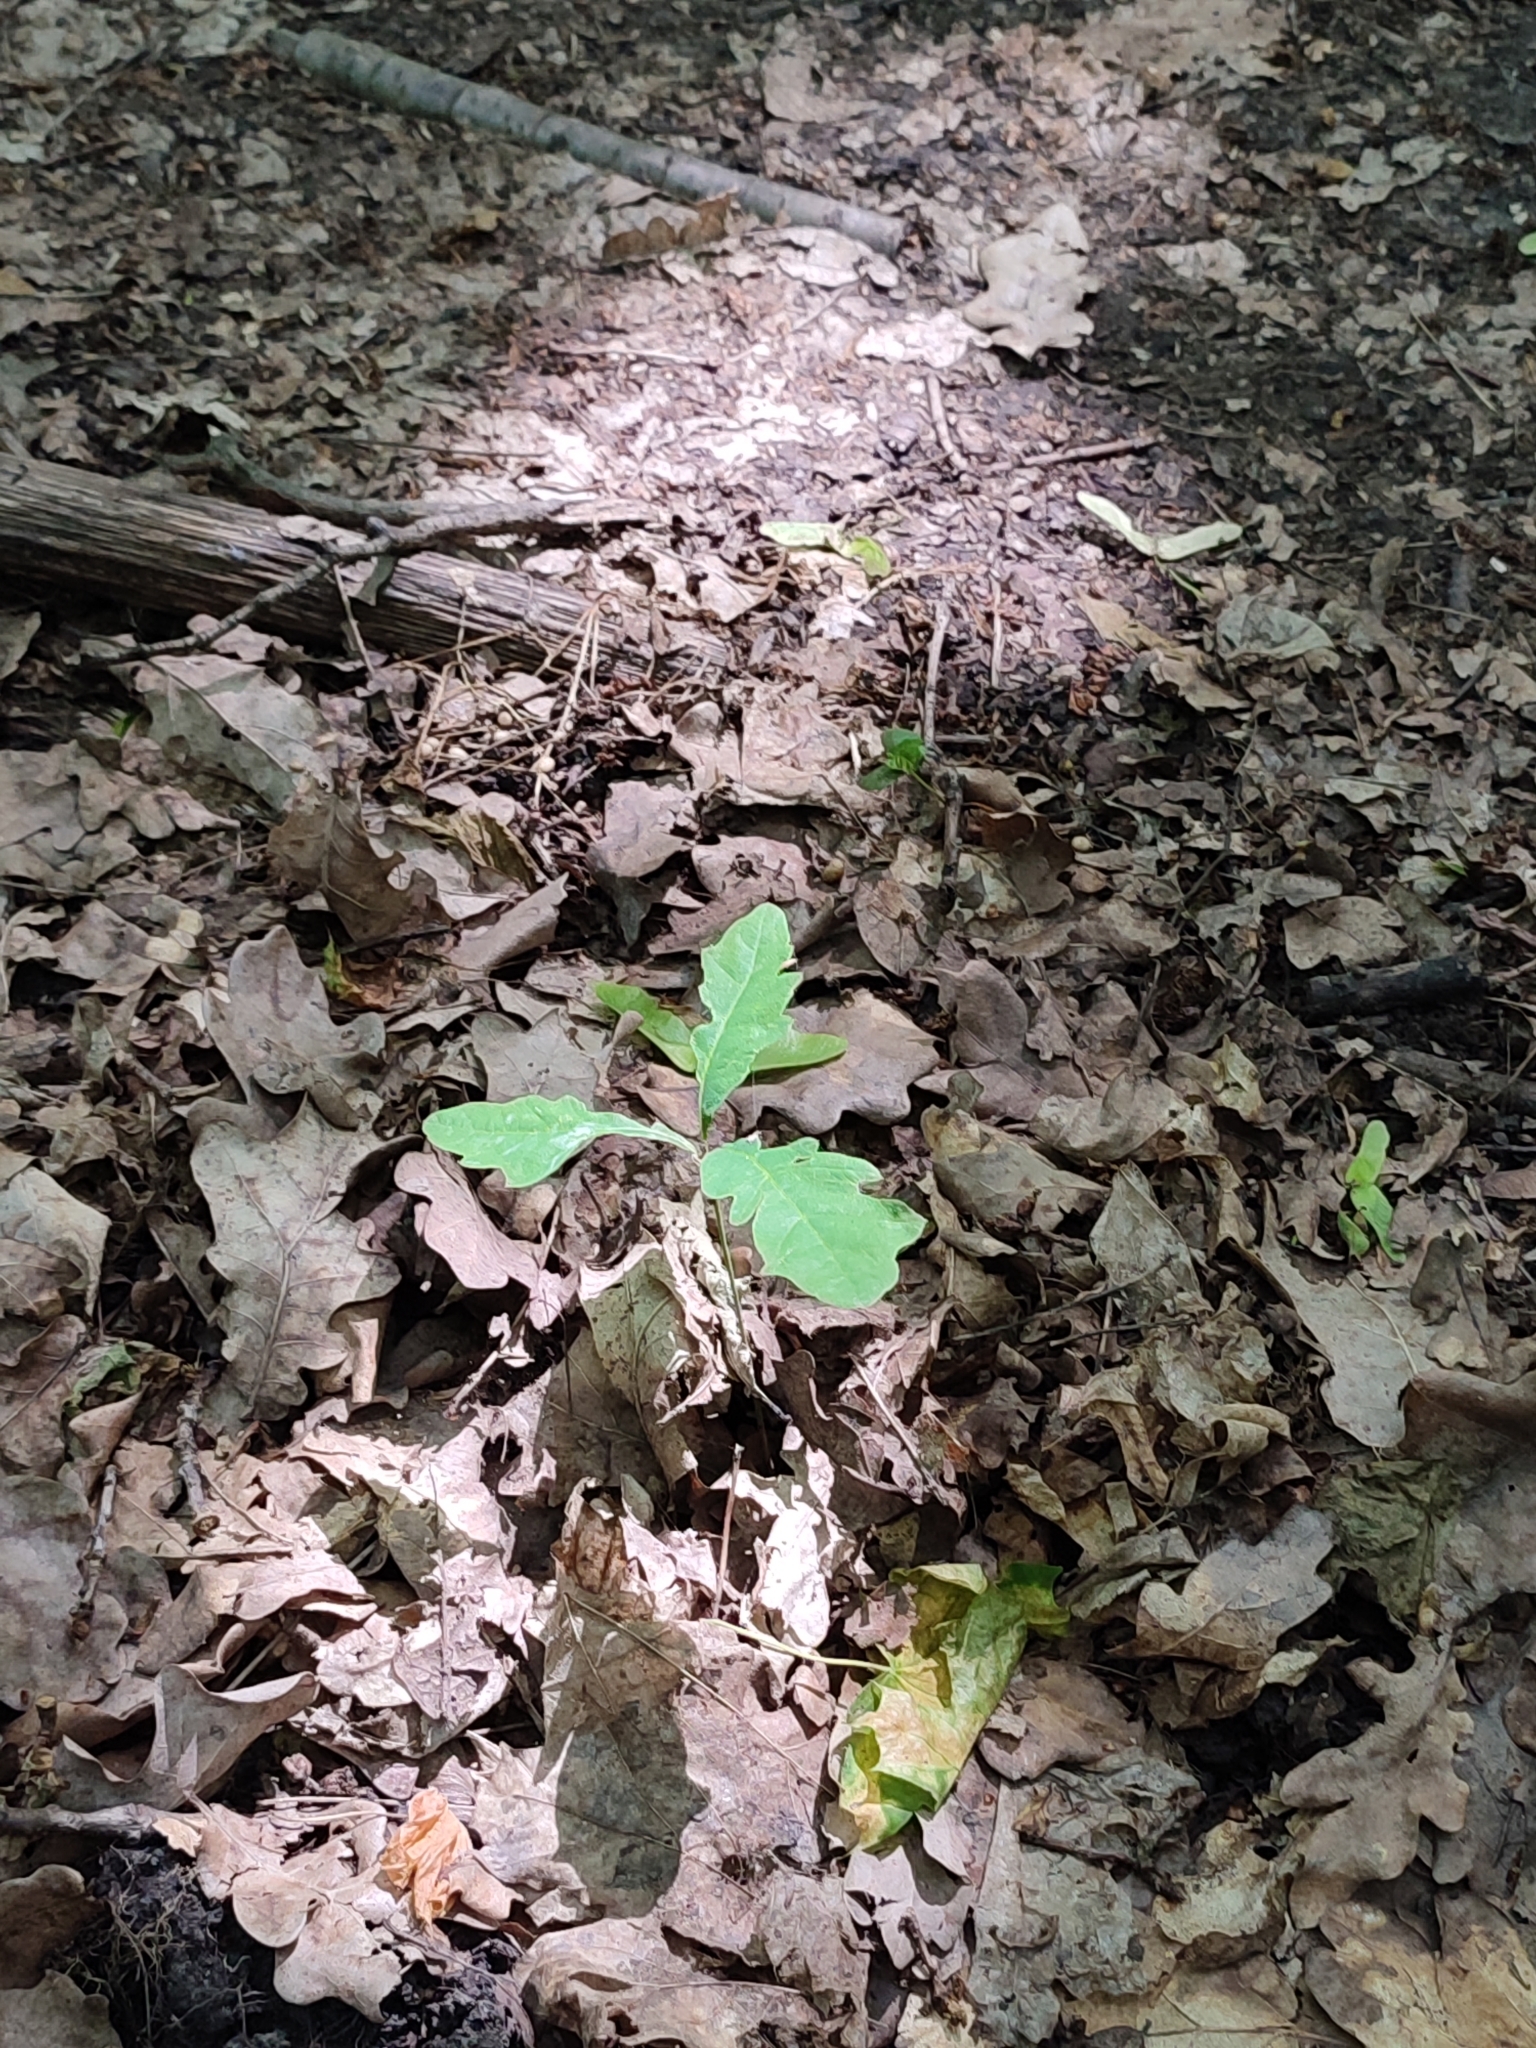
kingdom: Plantae
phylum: Tracheophyta
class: Magnoliopsida
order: Fagales
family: Fagaceae
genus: Quercus
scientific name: Quercus robur
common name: Pedunculate oak
